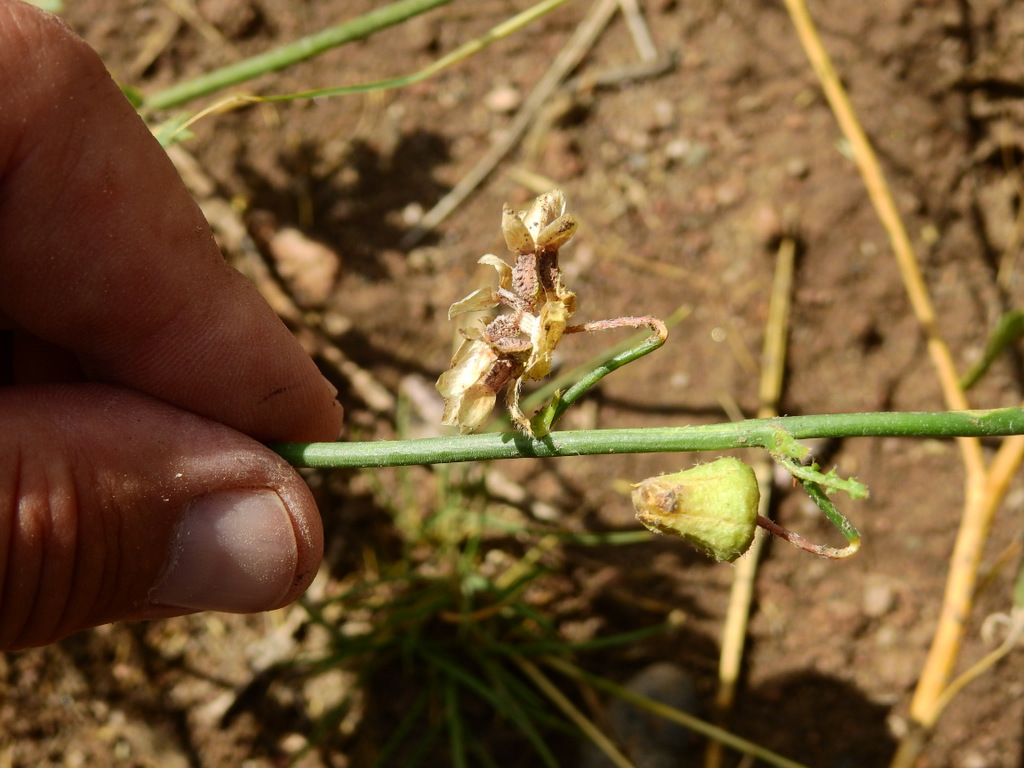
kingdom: Plantae
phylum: Tracheophyta
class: Magnoliopsida
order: Malvales
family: Malvaceae
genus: Lecanophora
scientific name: Lecanophora heterophylla
